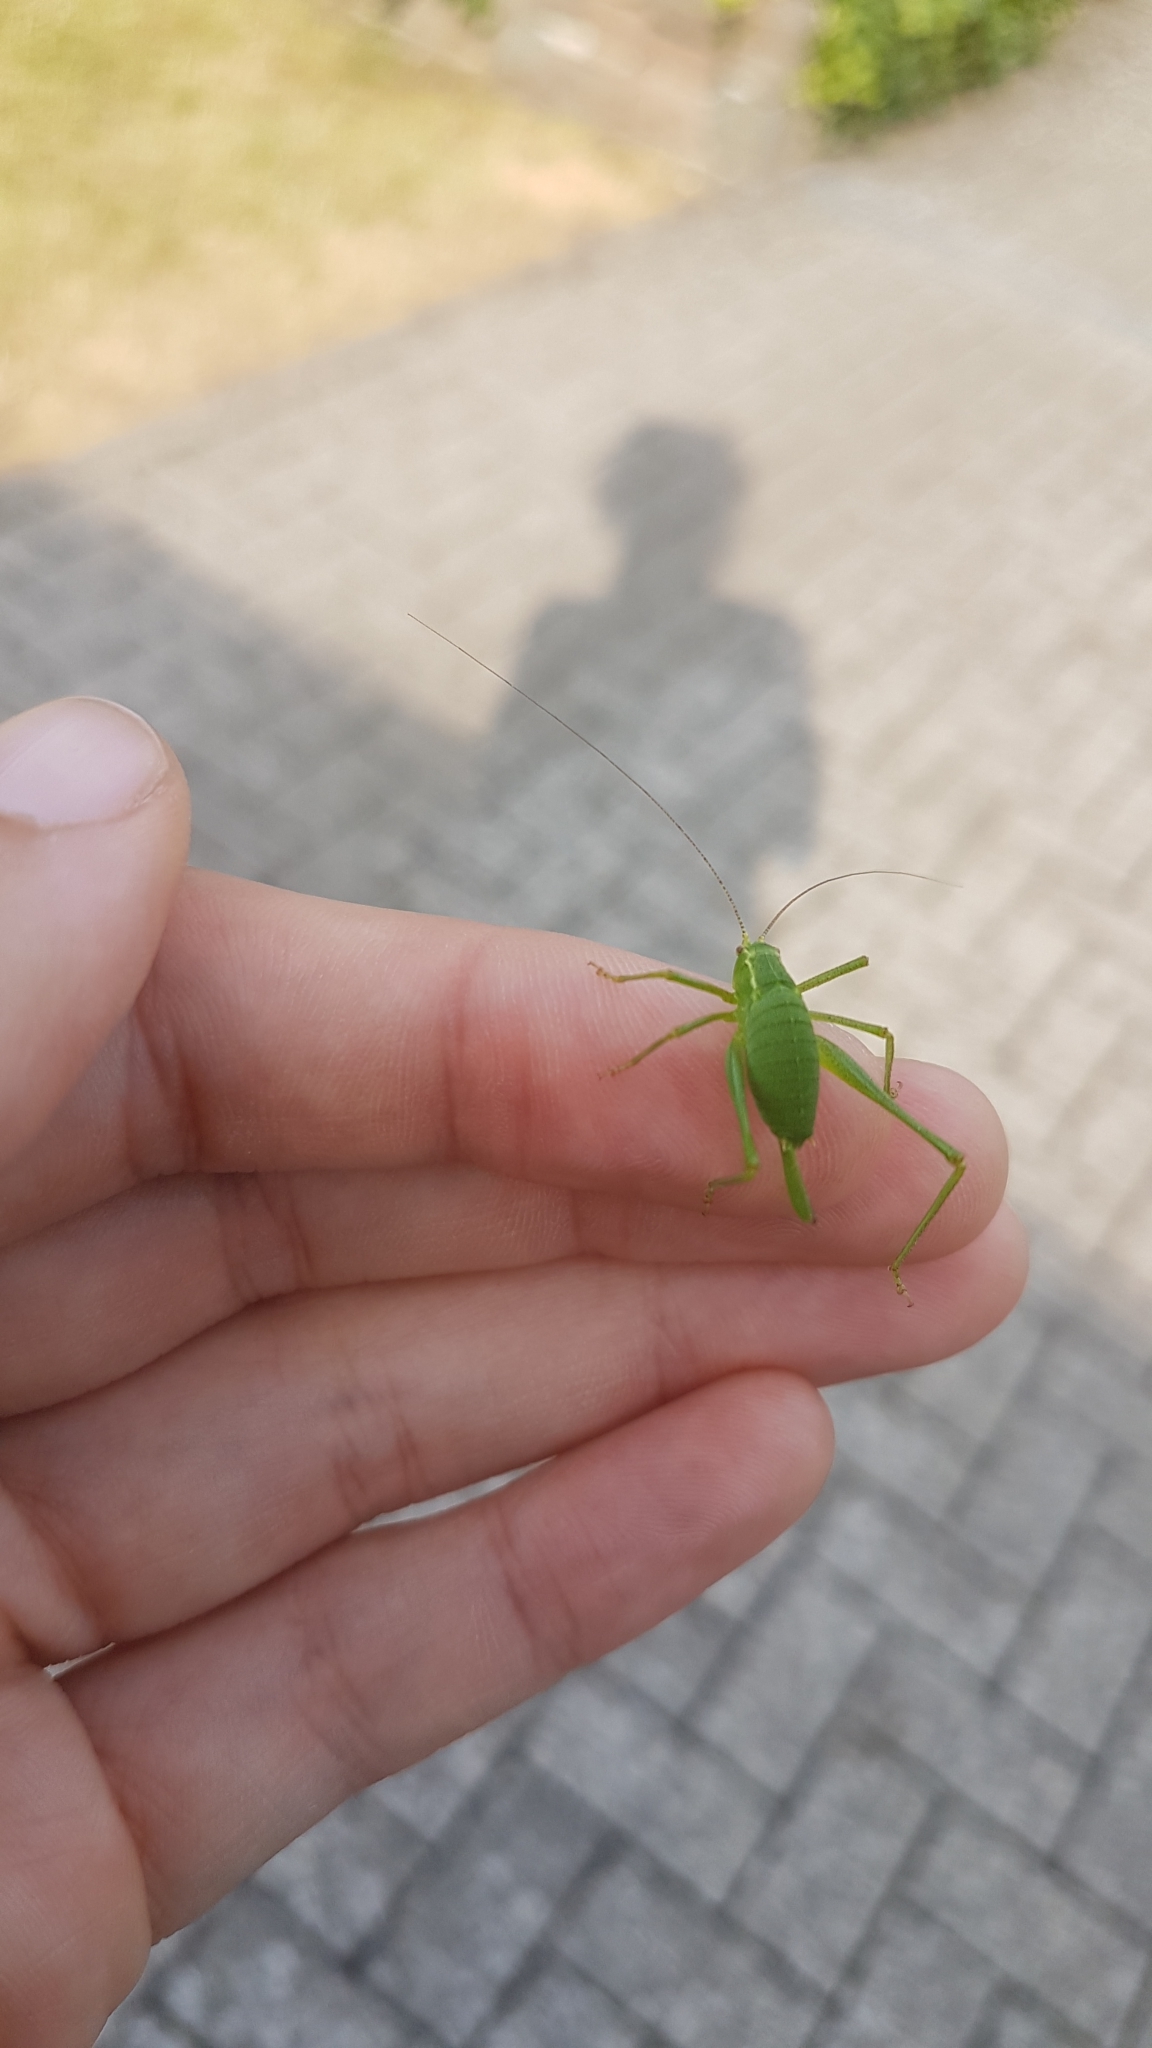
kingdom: Animalia
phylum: Arthropoda
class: Insecta
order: Orthoptera
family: Tettigoniidae
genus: Leptophyes
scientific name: Leptophyes punctatissima
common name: Speckled bush-cricket
